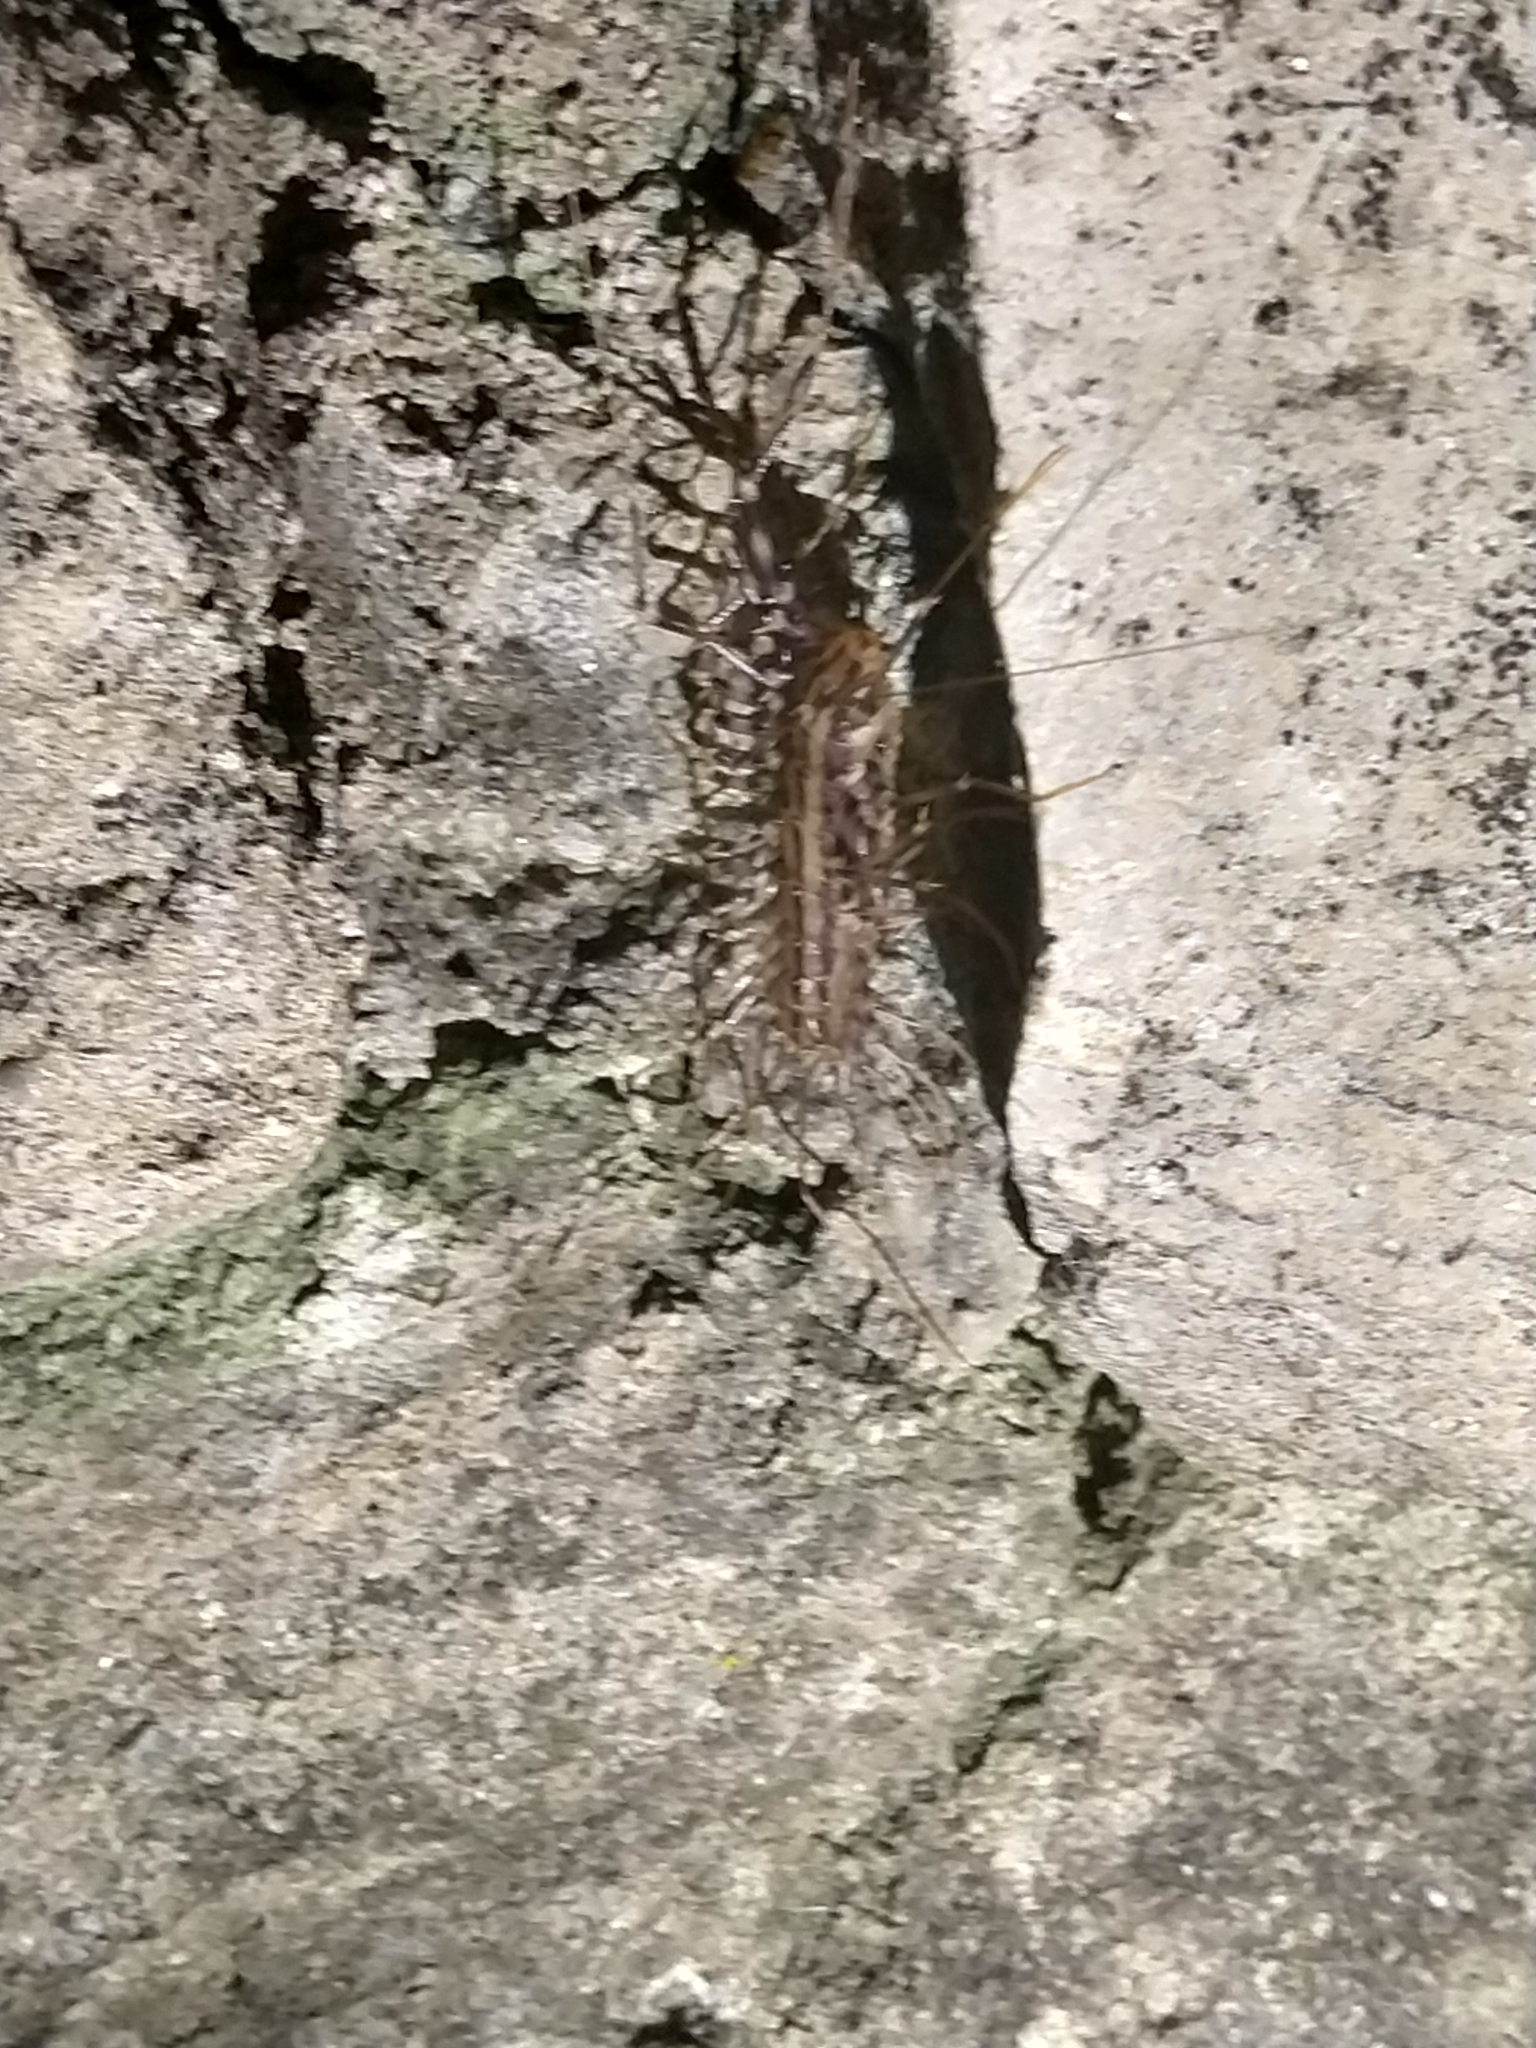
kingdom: Animalia
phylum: Arthropoda
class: Chilopoda
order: Scutigeromorpha
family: Scutigeridae
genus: Scutigera
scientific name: Scutigera coleoptrata
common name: House centipede
